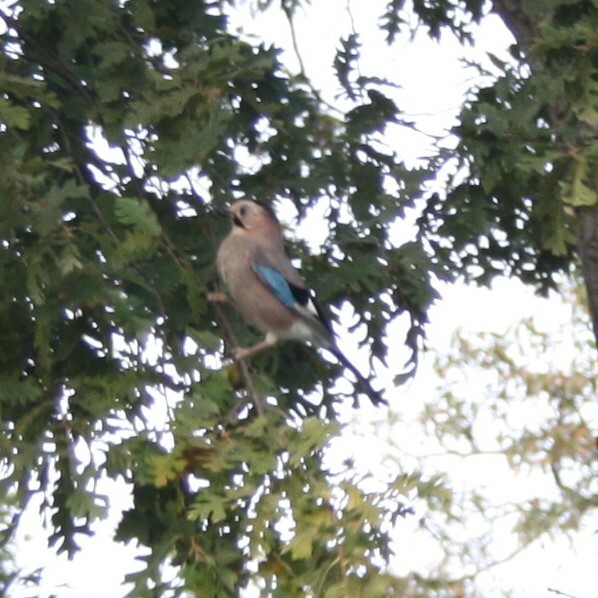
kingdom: Animalia
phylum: Chordata
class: Aves
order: Passeriformes
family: Corvidae
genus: Garrulus
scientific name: Garrulus glandarius
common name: Eurasian jay
